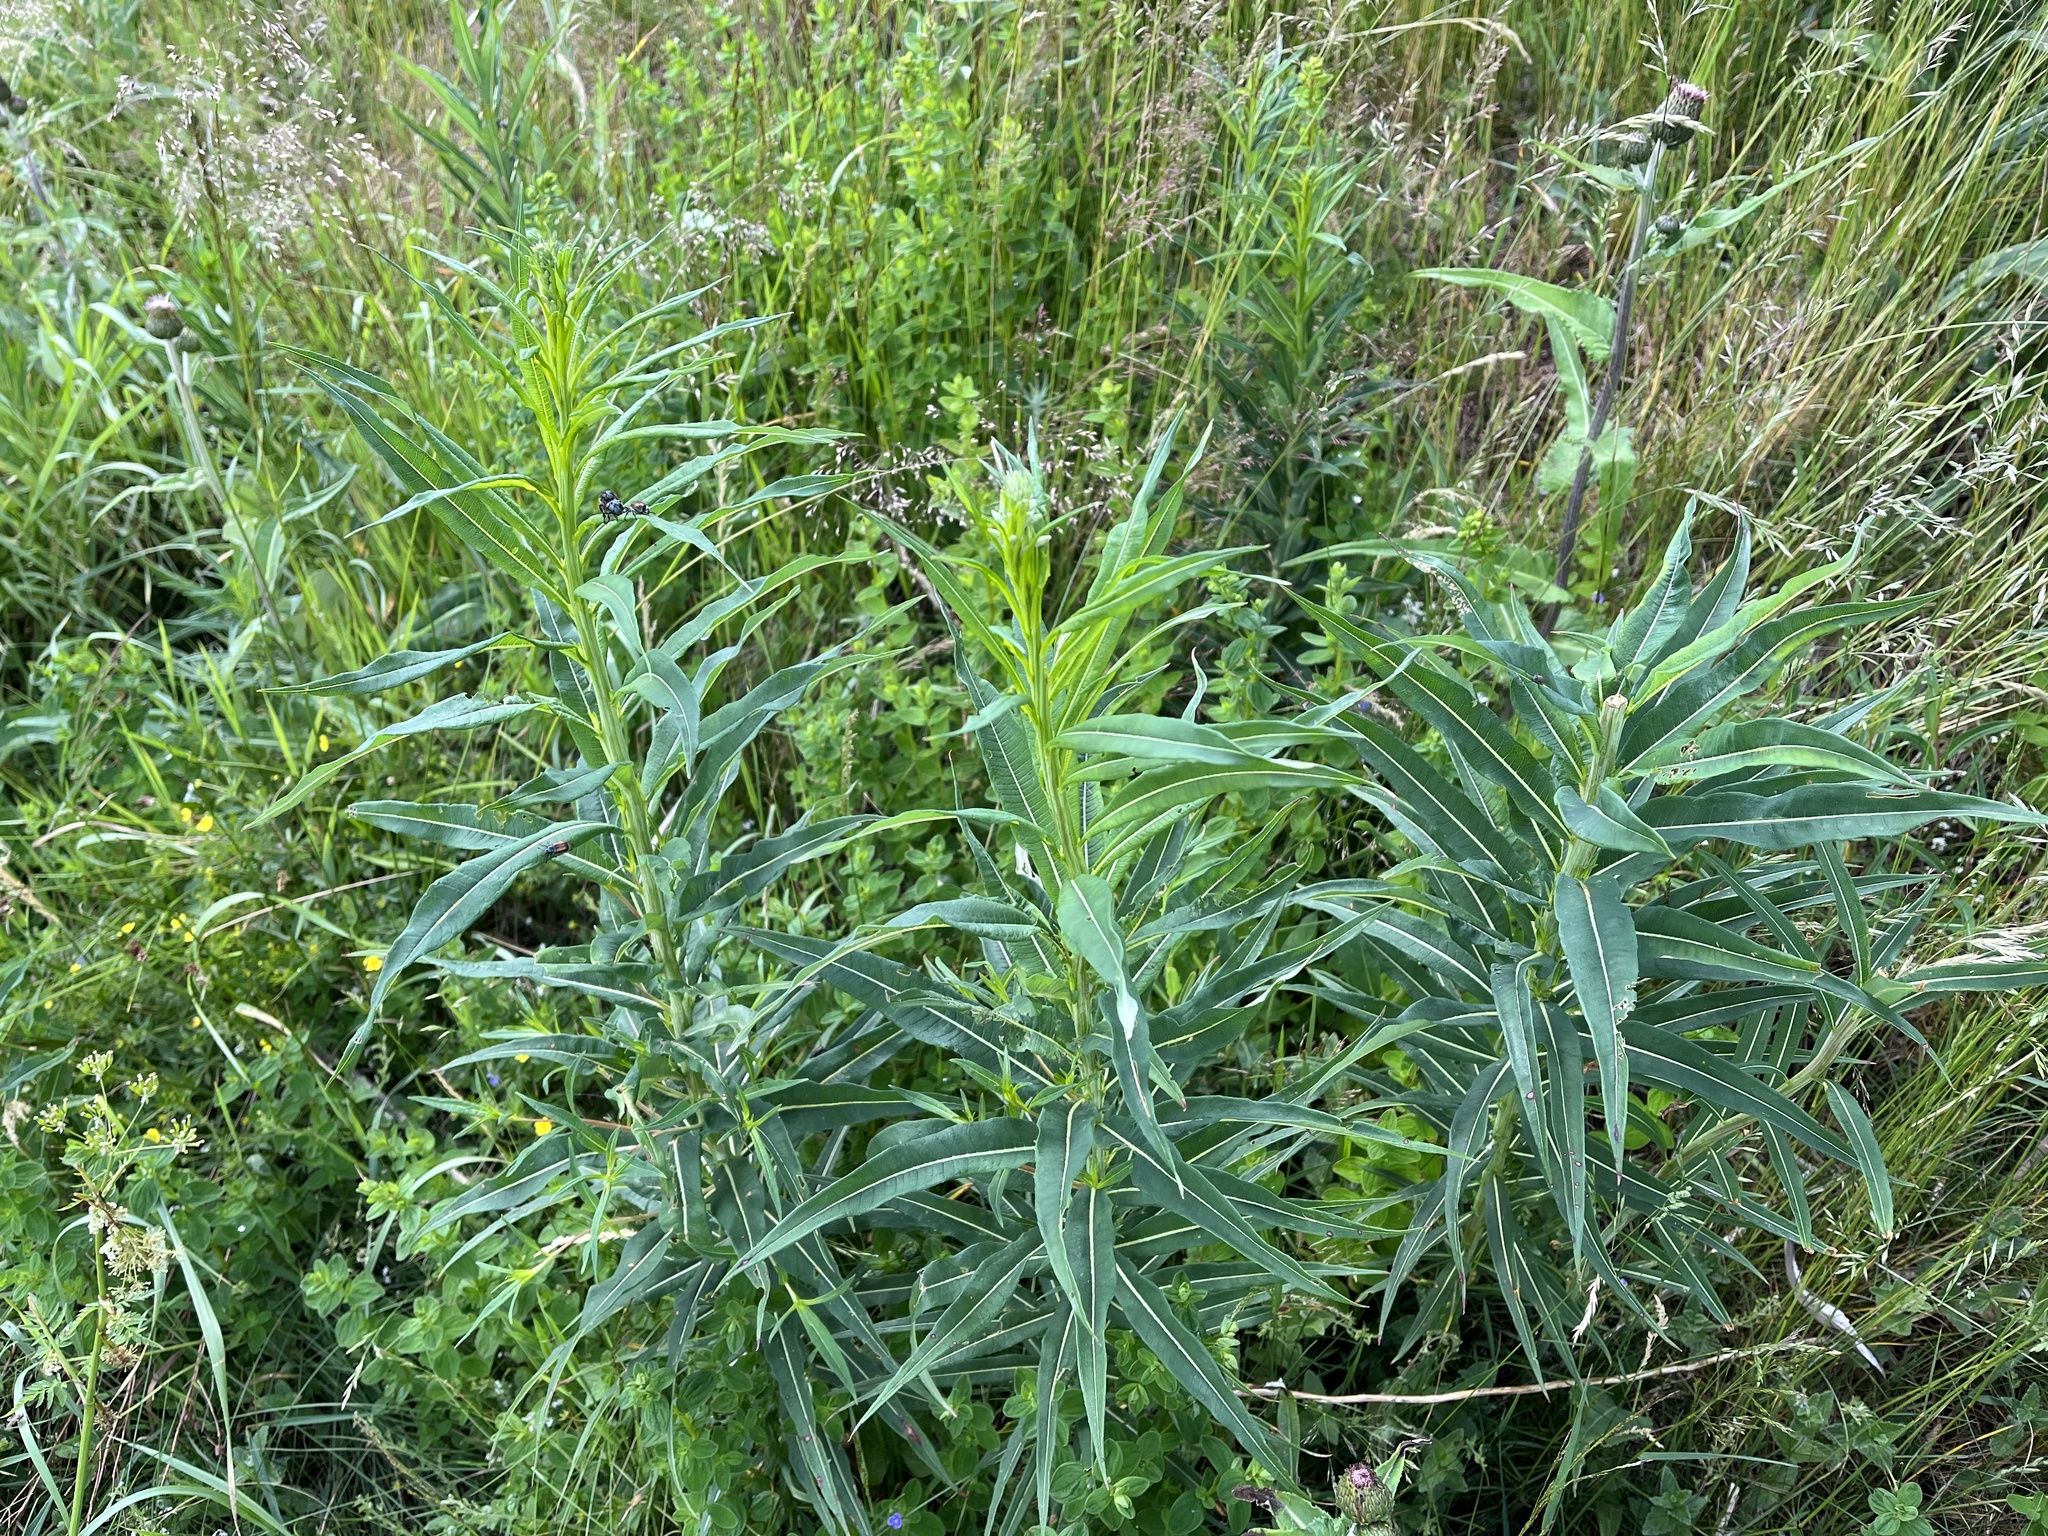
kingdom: Plantae
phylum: Tracheophyta
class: Magnoliopsida
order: Myrtales
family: Onagraceae
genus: Chamaenerion
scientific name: Chamaenerion angustifolium
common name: Fireweed
